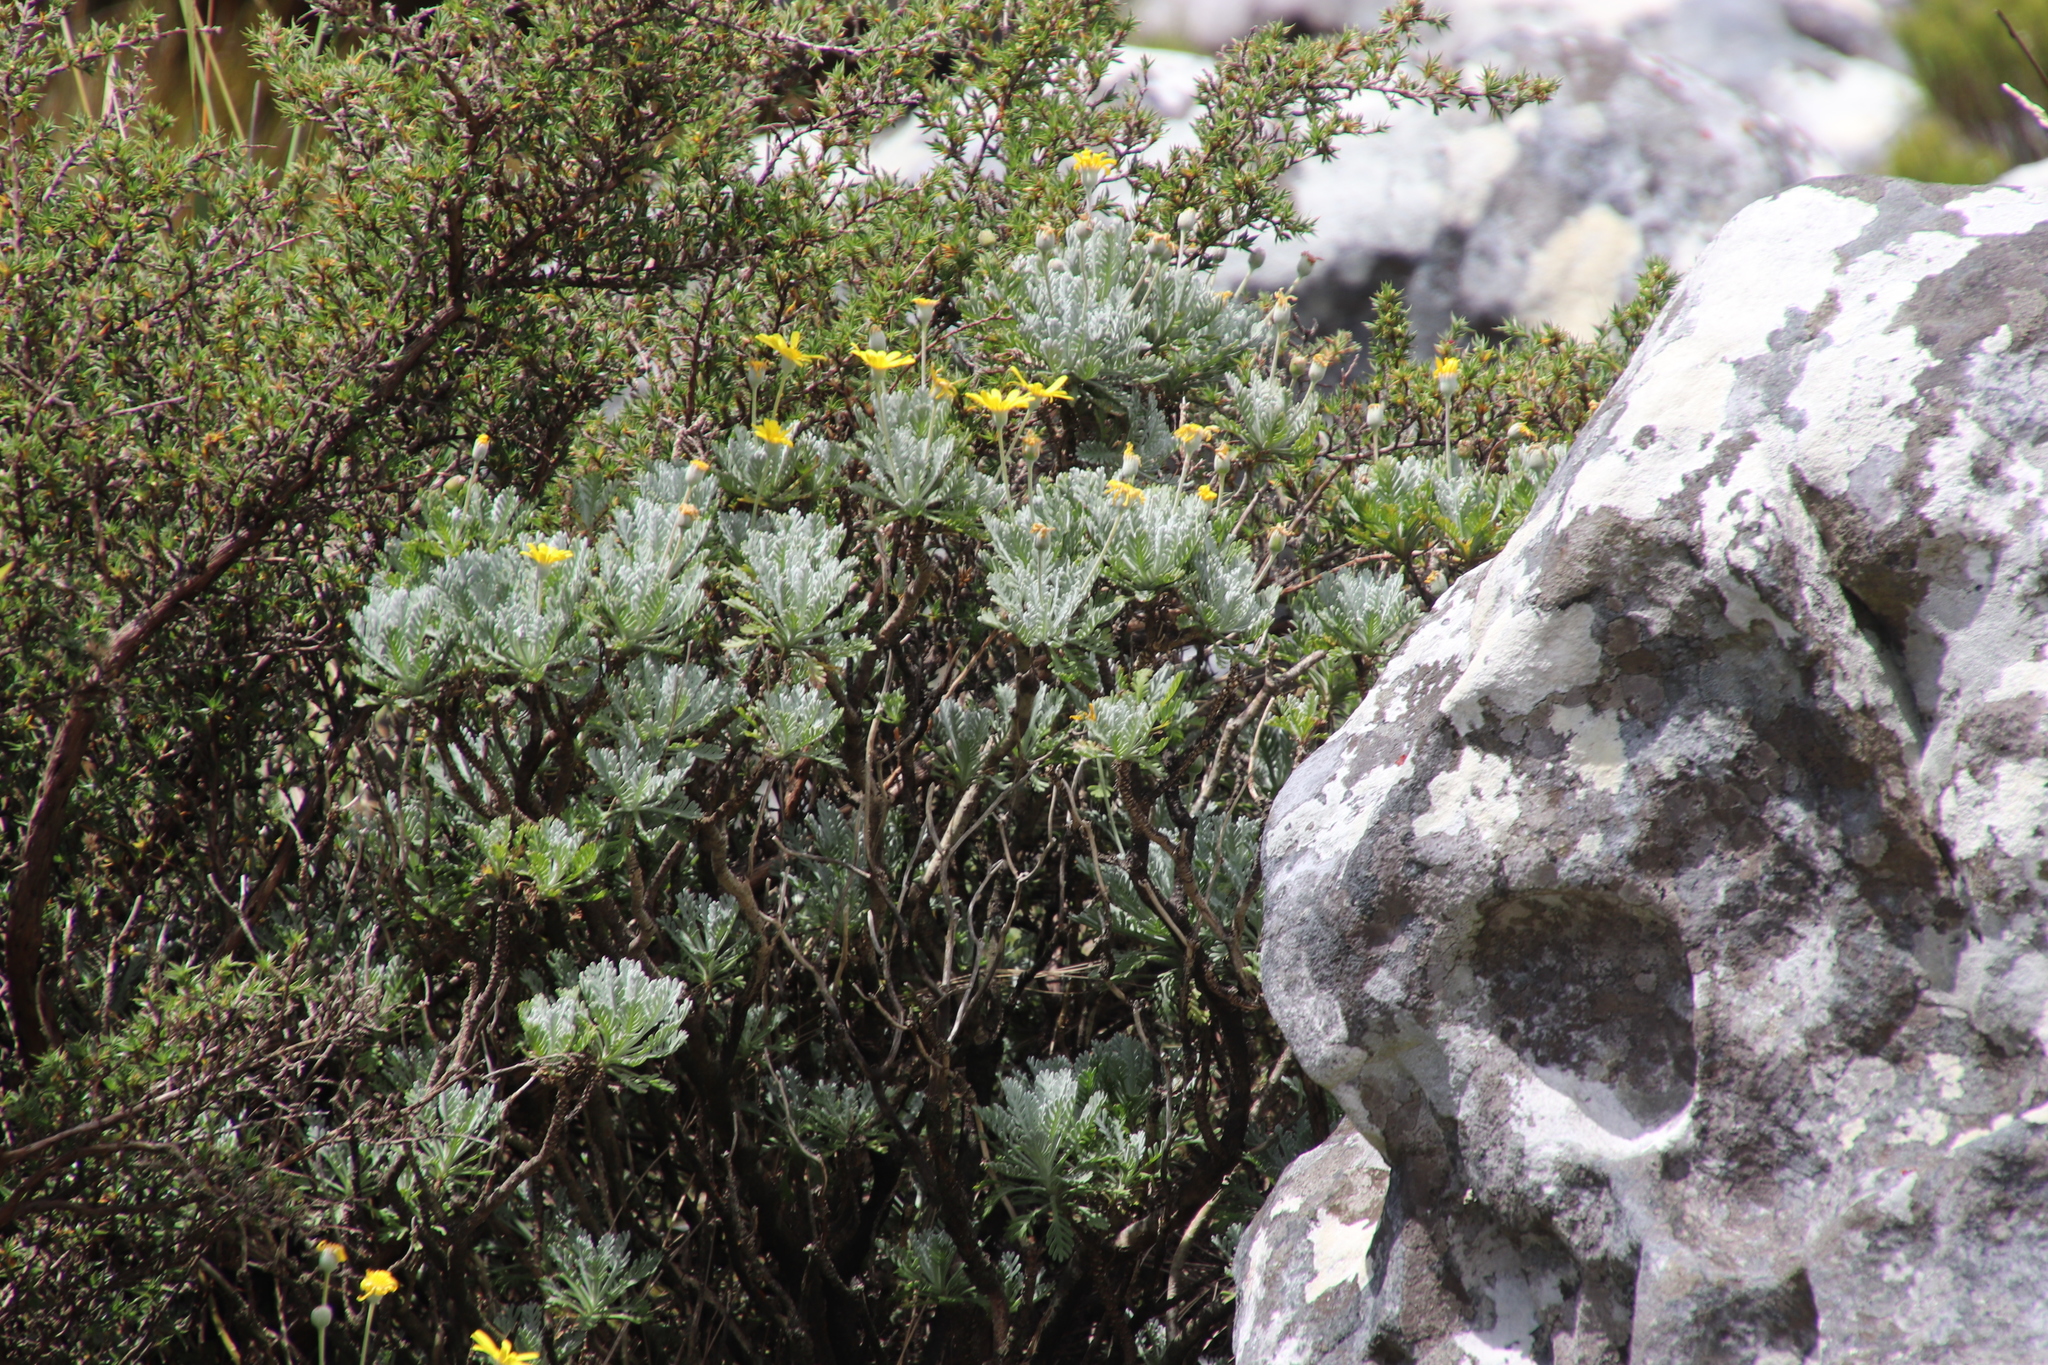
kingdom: Plantae
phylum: Tracheophyta
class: Magnoliopsida
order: Asterales
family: Asteraceae
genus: Euryops
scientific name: Euryops pectinatus
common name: Gray-leaf euryops
